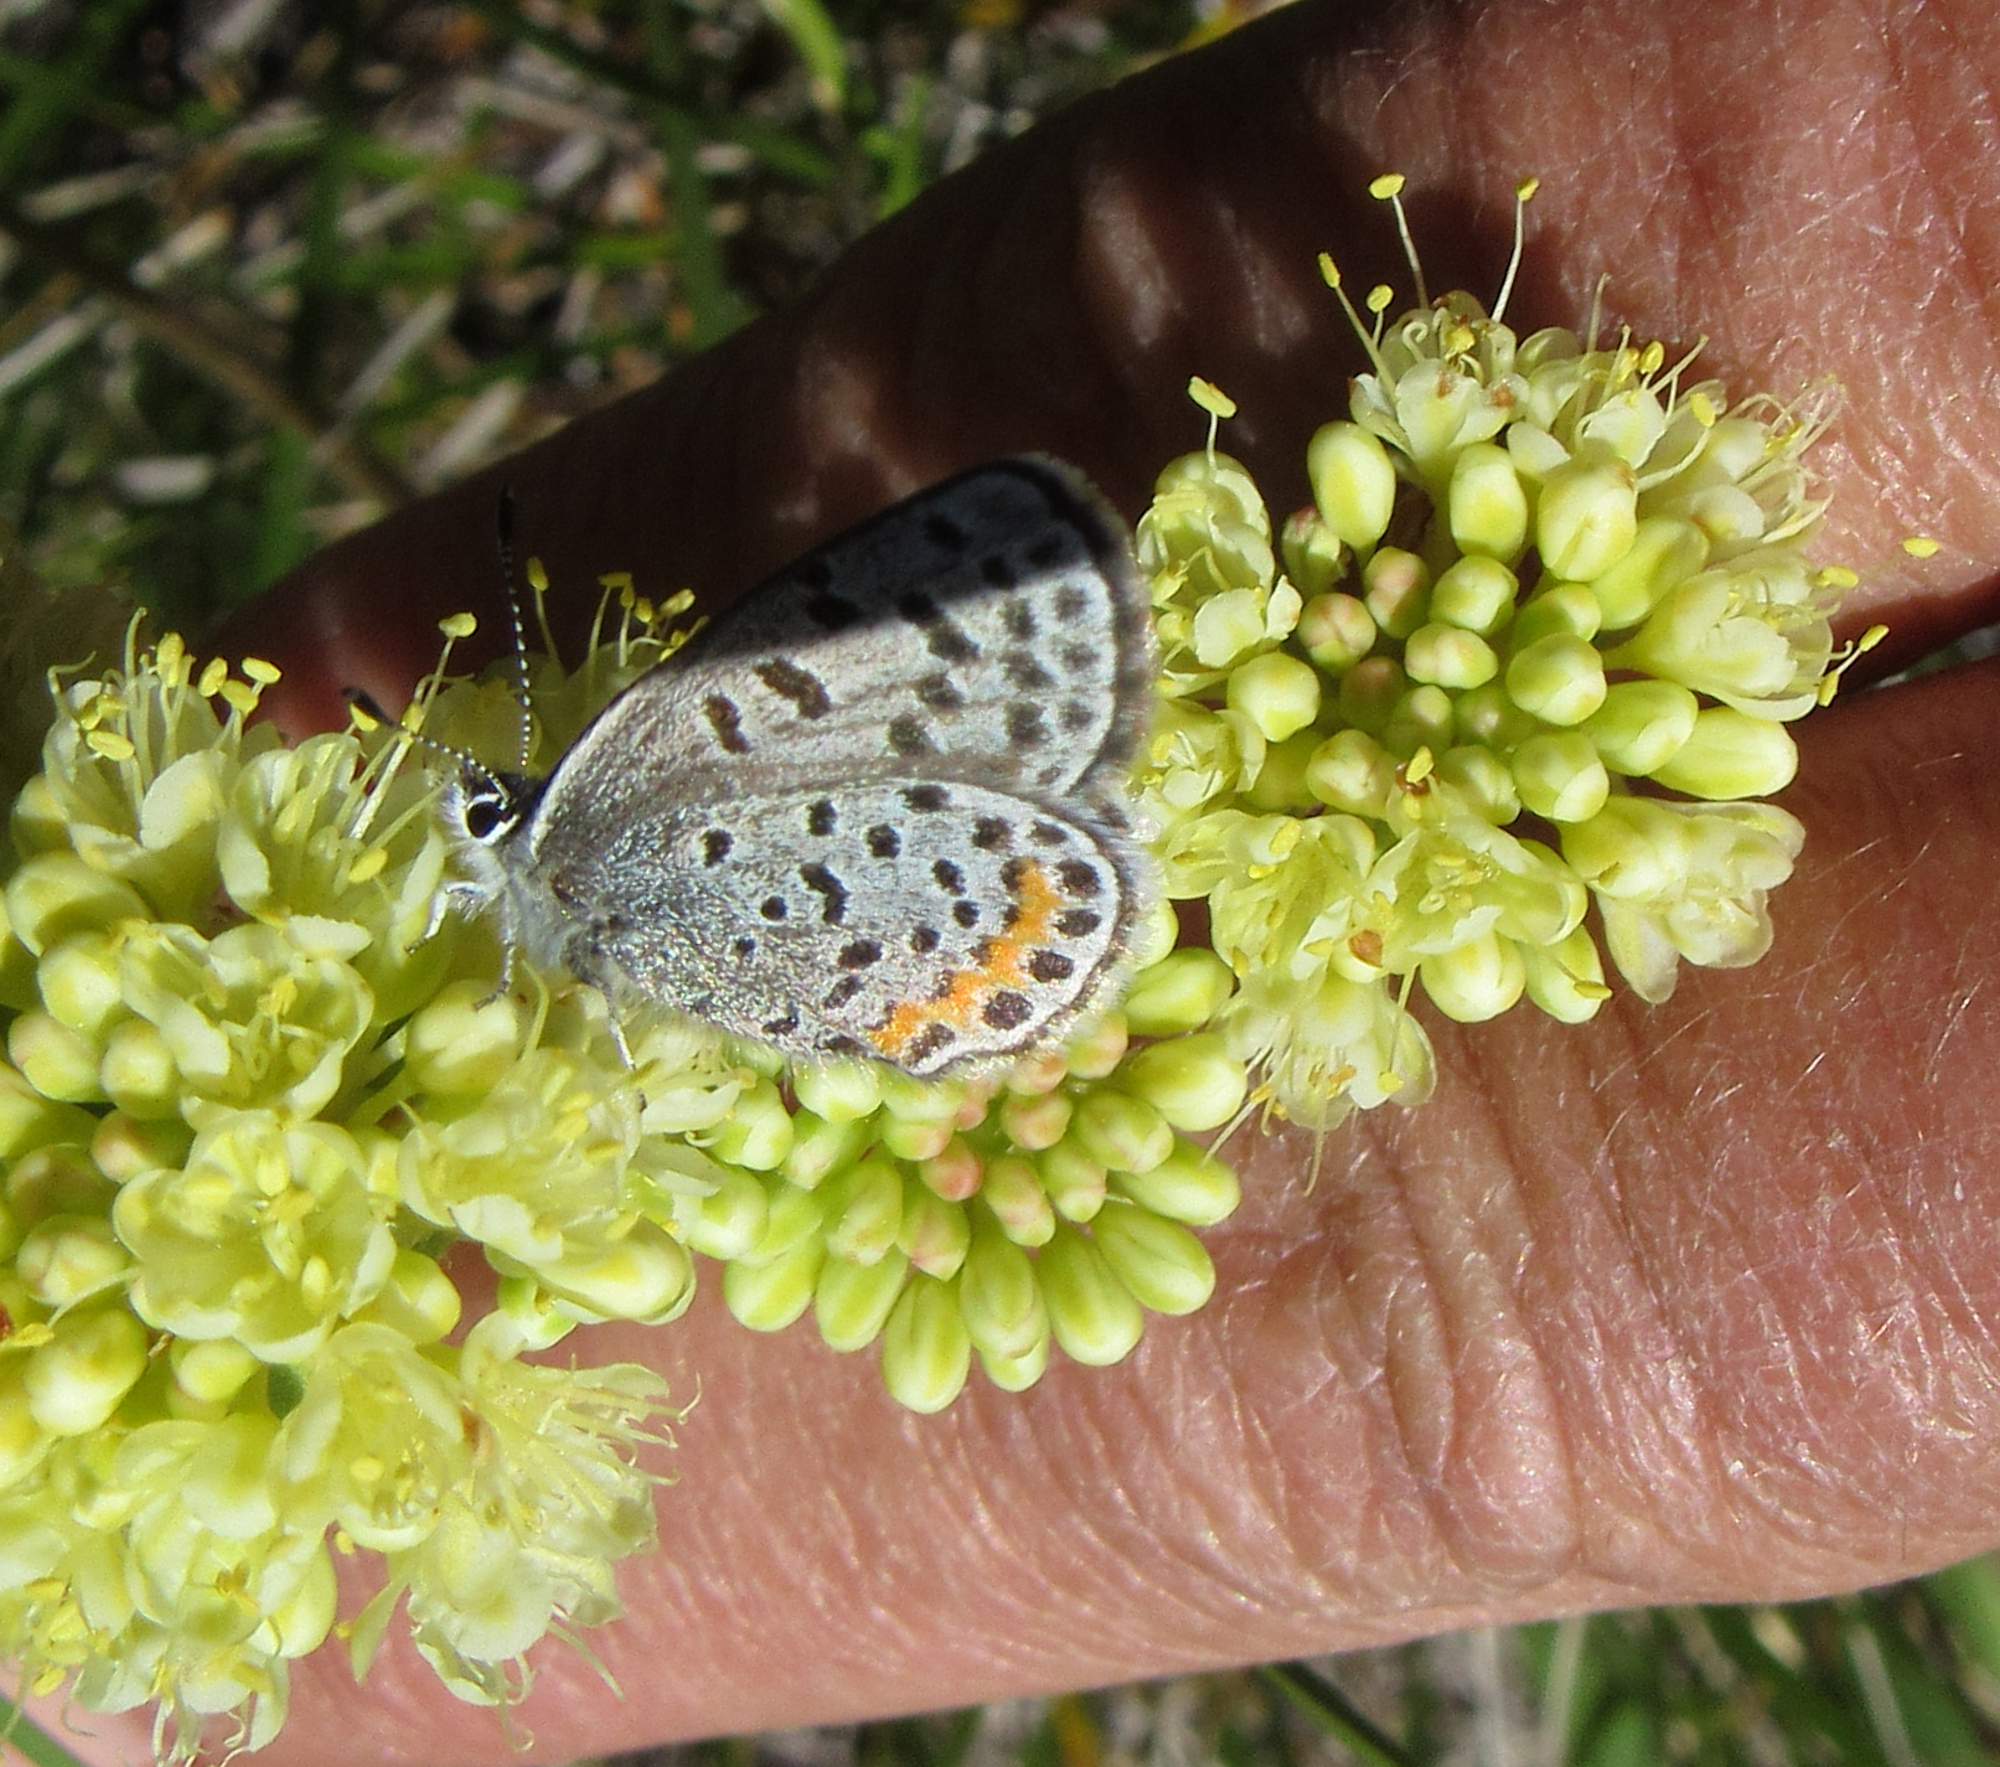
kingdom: Animalia
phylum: Arthropoda
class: Insecta
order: Lepidoptera
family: Lycaenidae
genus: Euphilotes
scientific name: Euphilotes enoptes
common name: Dotted blue
